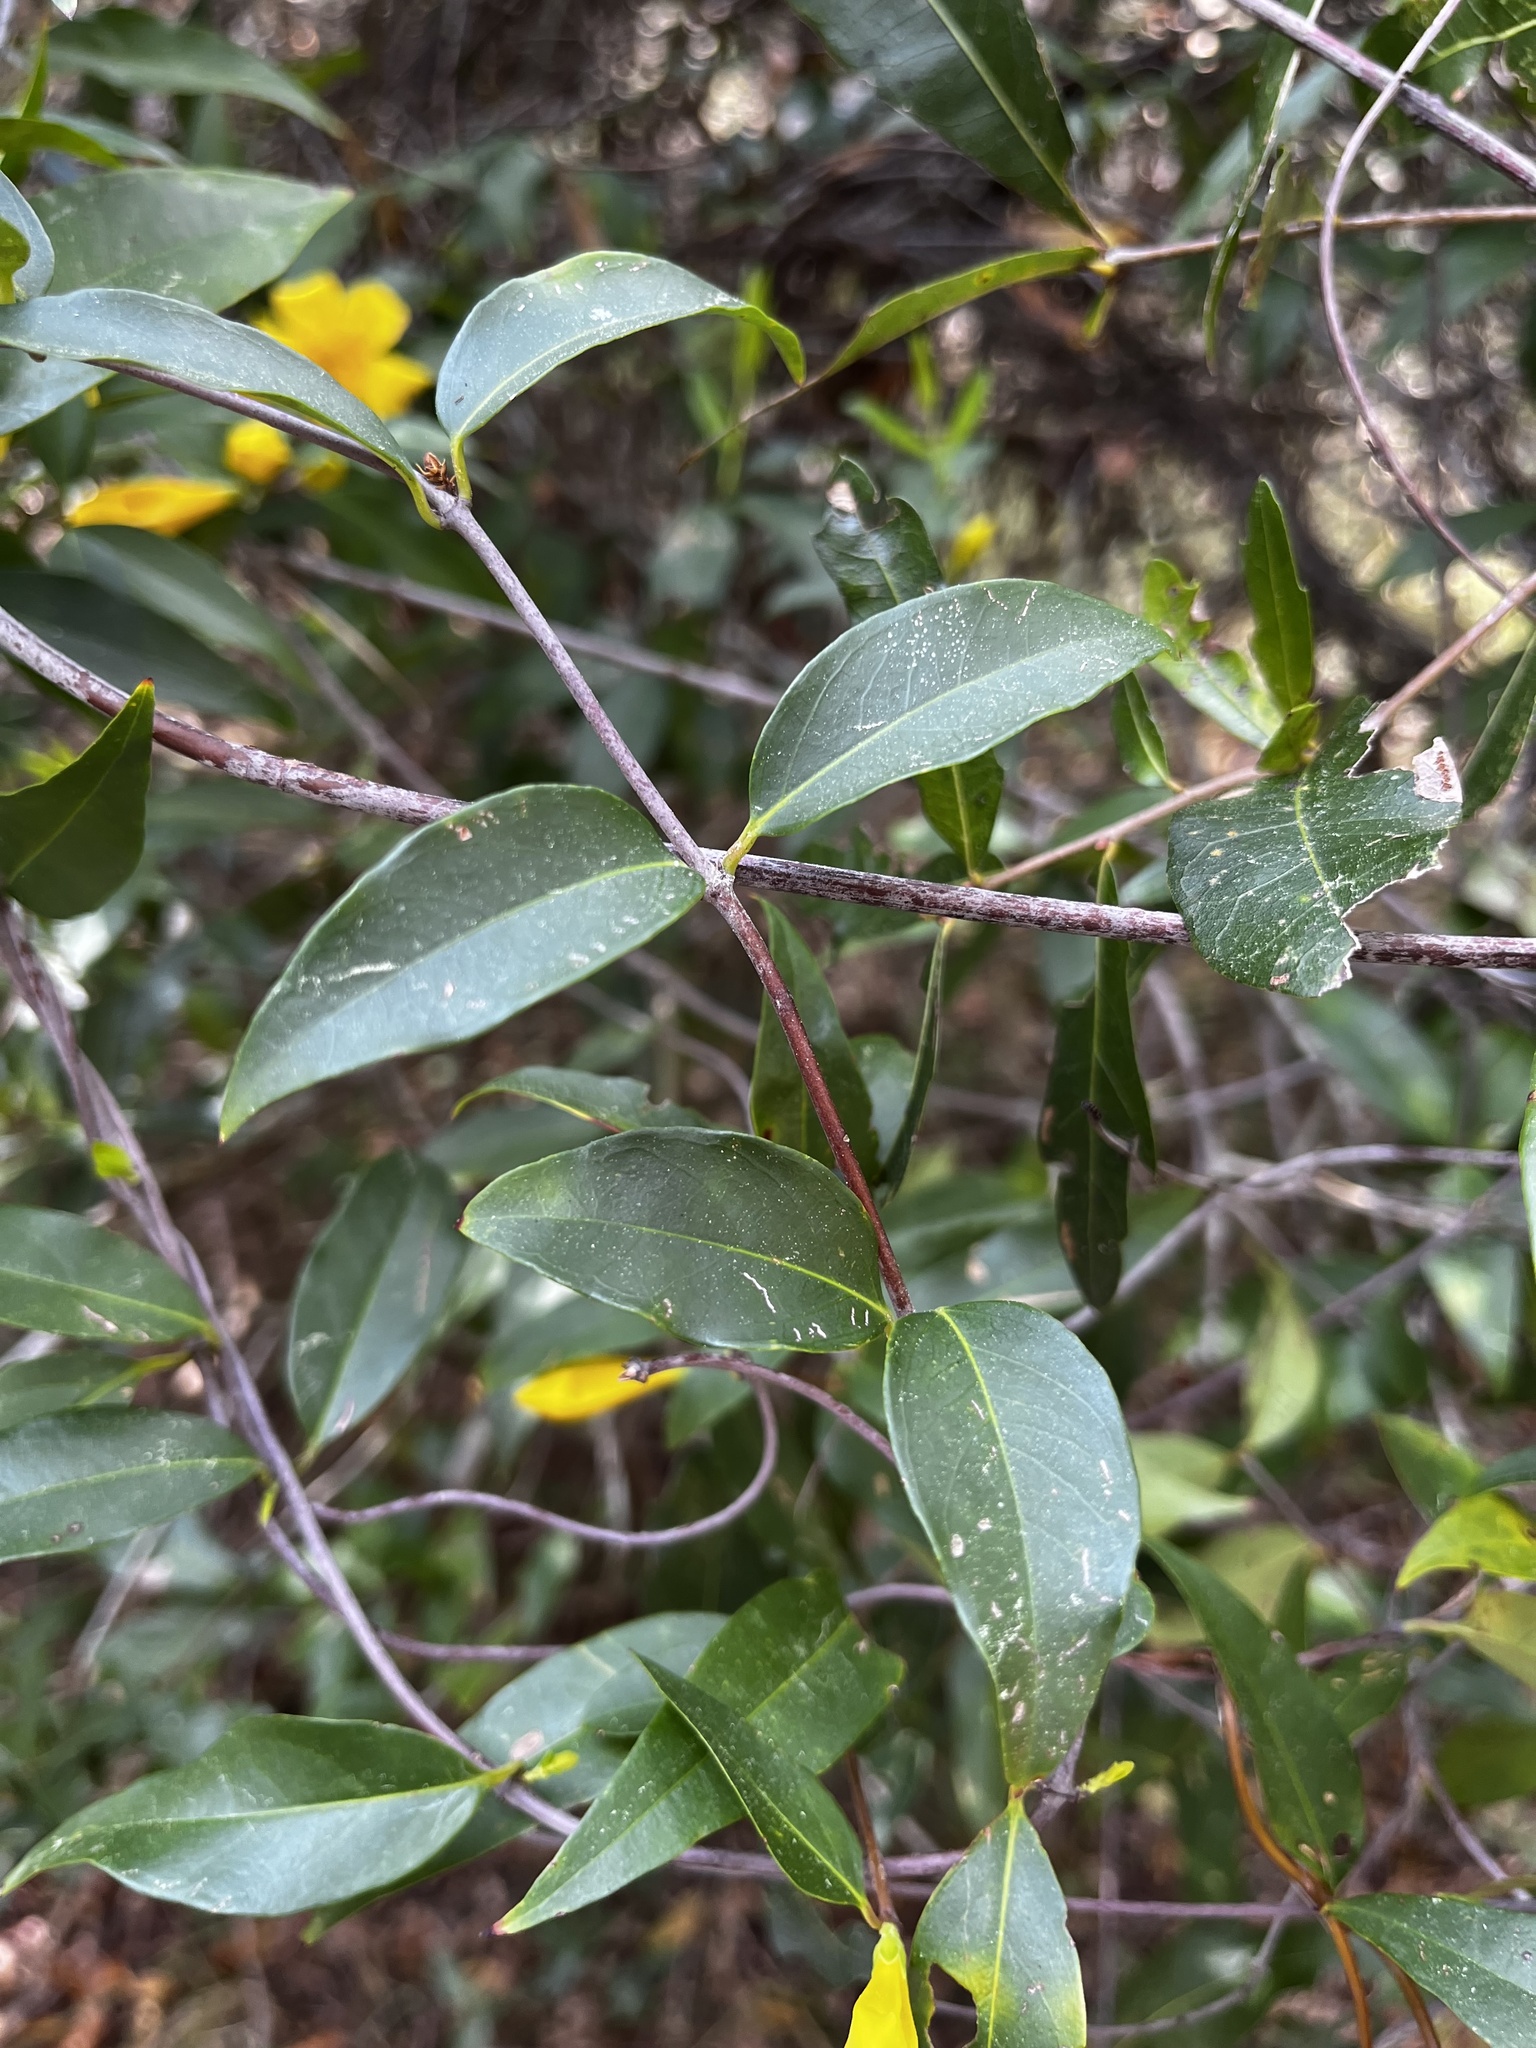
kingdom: Plantae
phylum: Tracheophyta
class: Magnoliopsida
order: Gentianales
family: Gelsemiaceae
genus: Gelsemium
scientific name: Gelsemium sempervirens
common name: Carolina-jasmine
